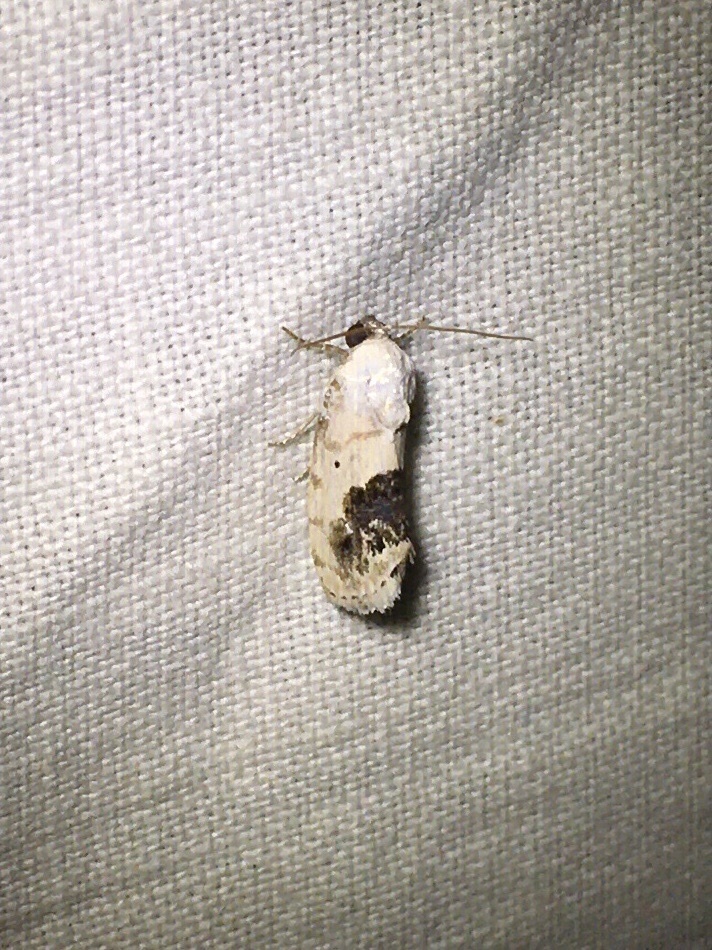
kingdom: Animalia
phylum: Arthropoda
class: Insecta
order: Lepidoptera
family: Noctuidae
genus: Acontia
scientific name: Acontia erastrioides
